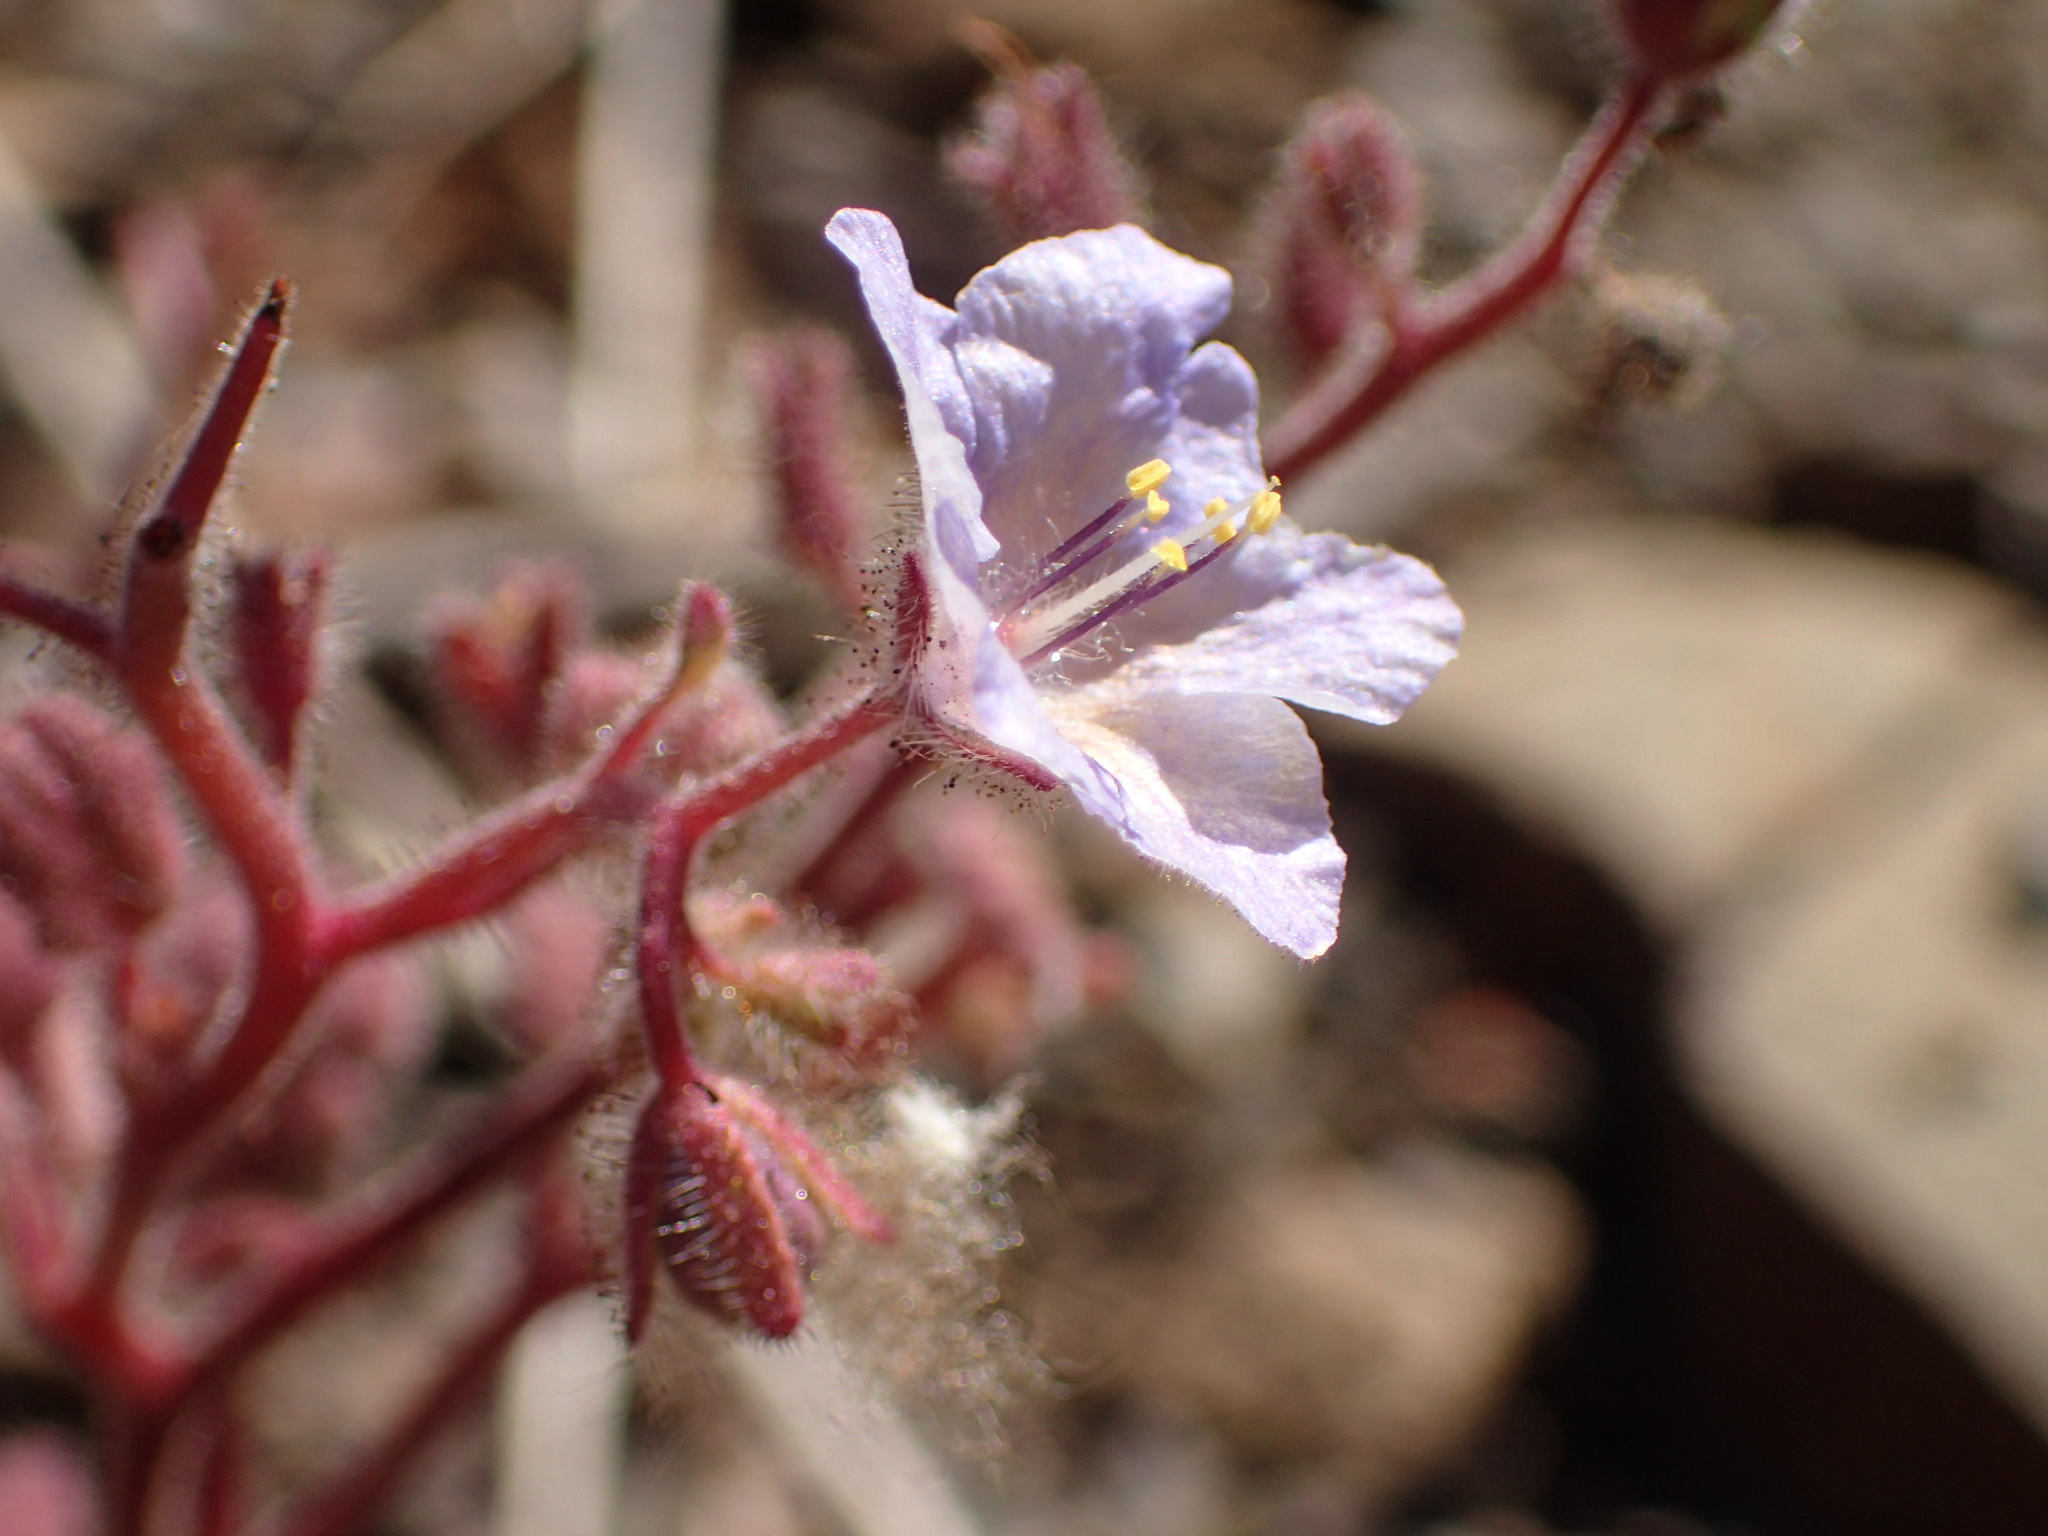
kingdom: Plantae
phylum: Tracheophyta
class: Magnoliopsida
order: Boraginales
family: Hydrophyllaceae
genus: Phacelia
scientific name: Phacelia longipes
